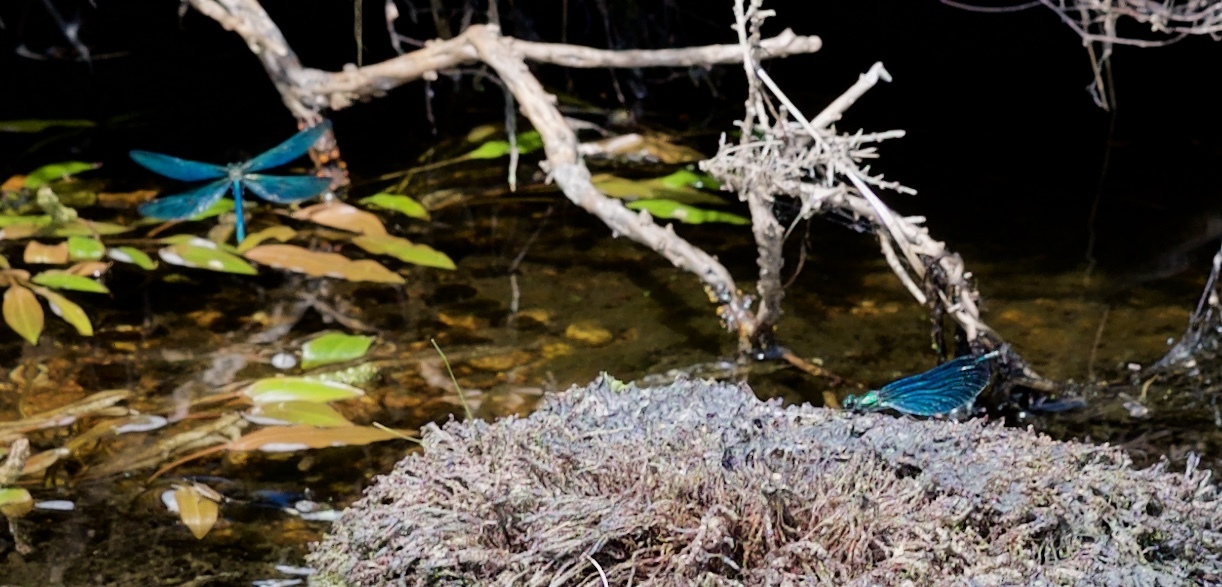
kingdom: Animalia
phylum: Arthropoda
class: Insecta
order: Odonata
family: Calopterygidae
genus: Calopteryx
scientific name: Calopteryx virgo
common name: Beautiful demoiselle
